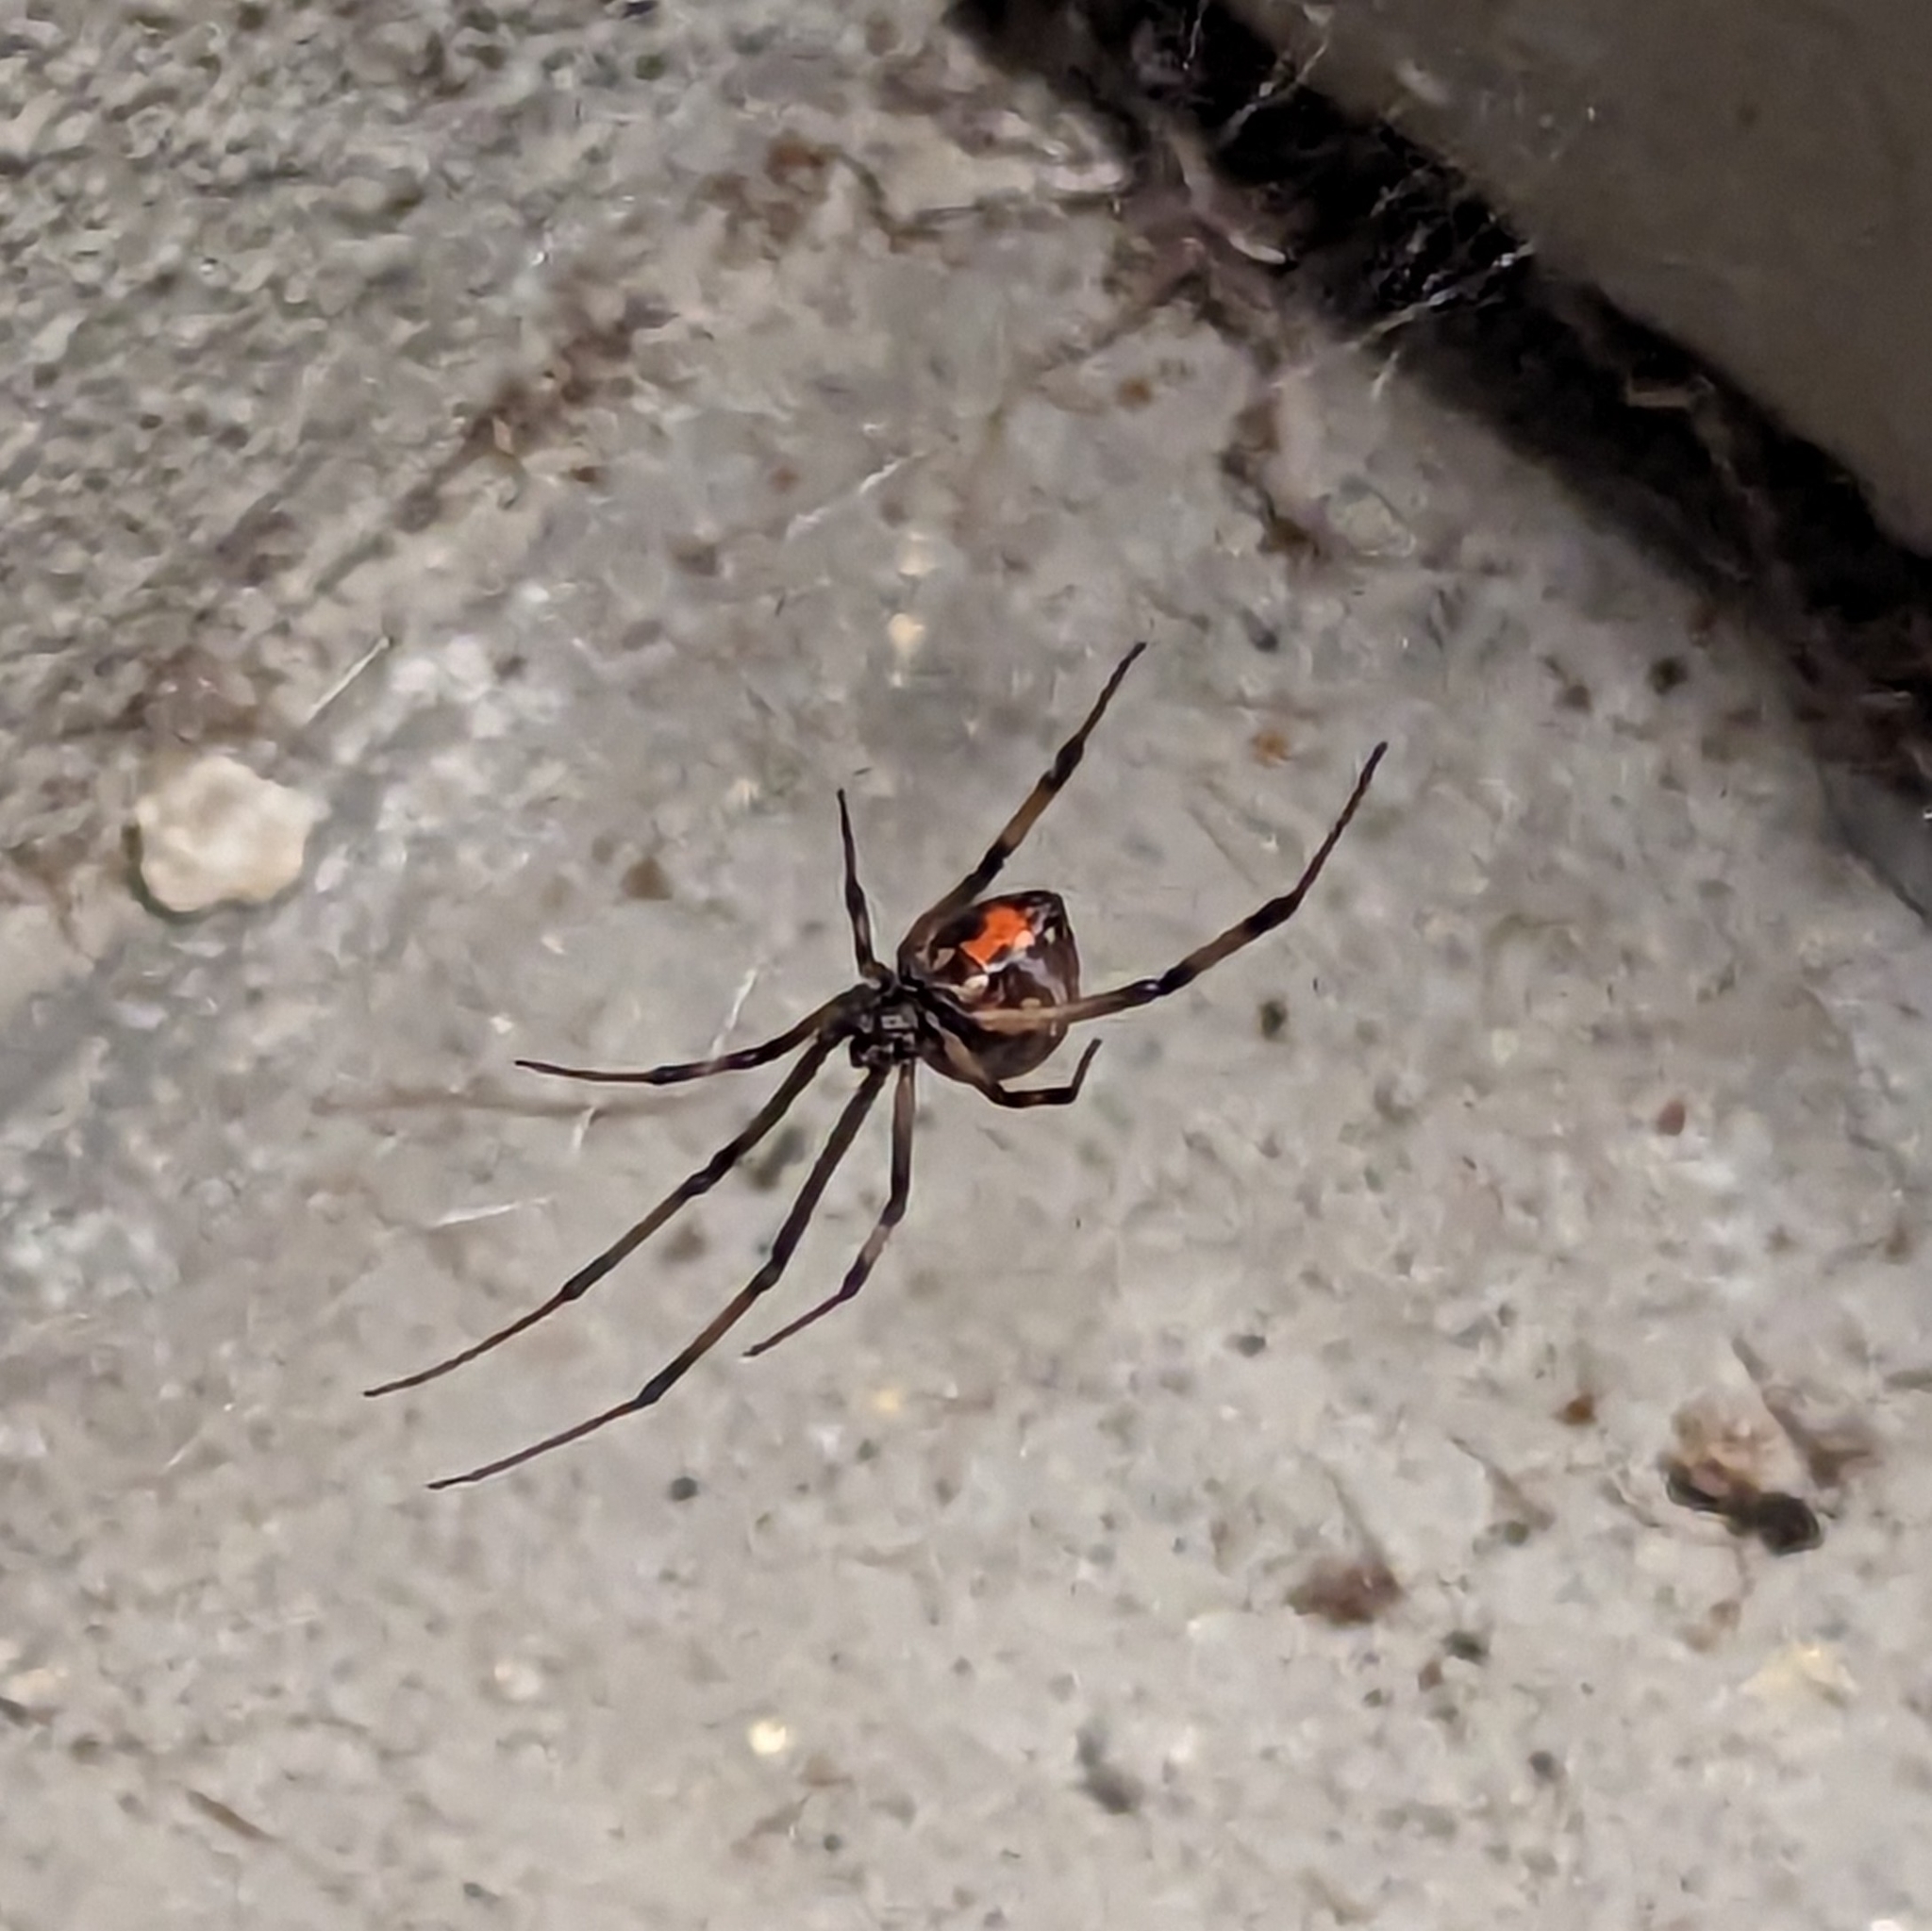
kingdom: Animalia
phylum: Arthropoda
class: Arachnida
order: Araneae
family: Theridiidae
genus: Latrodectus
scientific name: Latrodectus geometricus
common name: Brown widow spider
